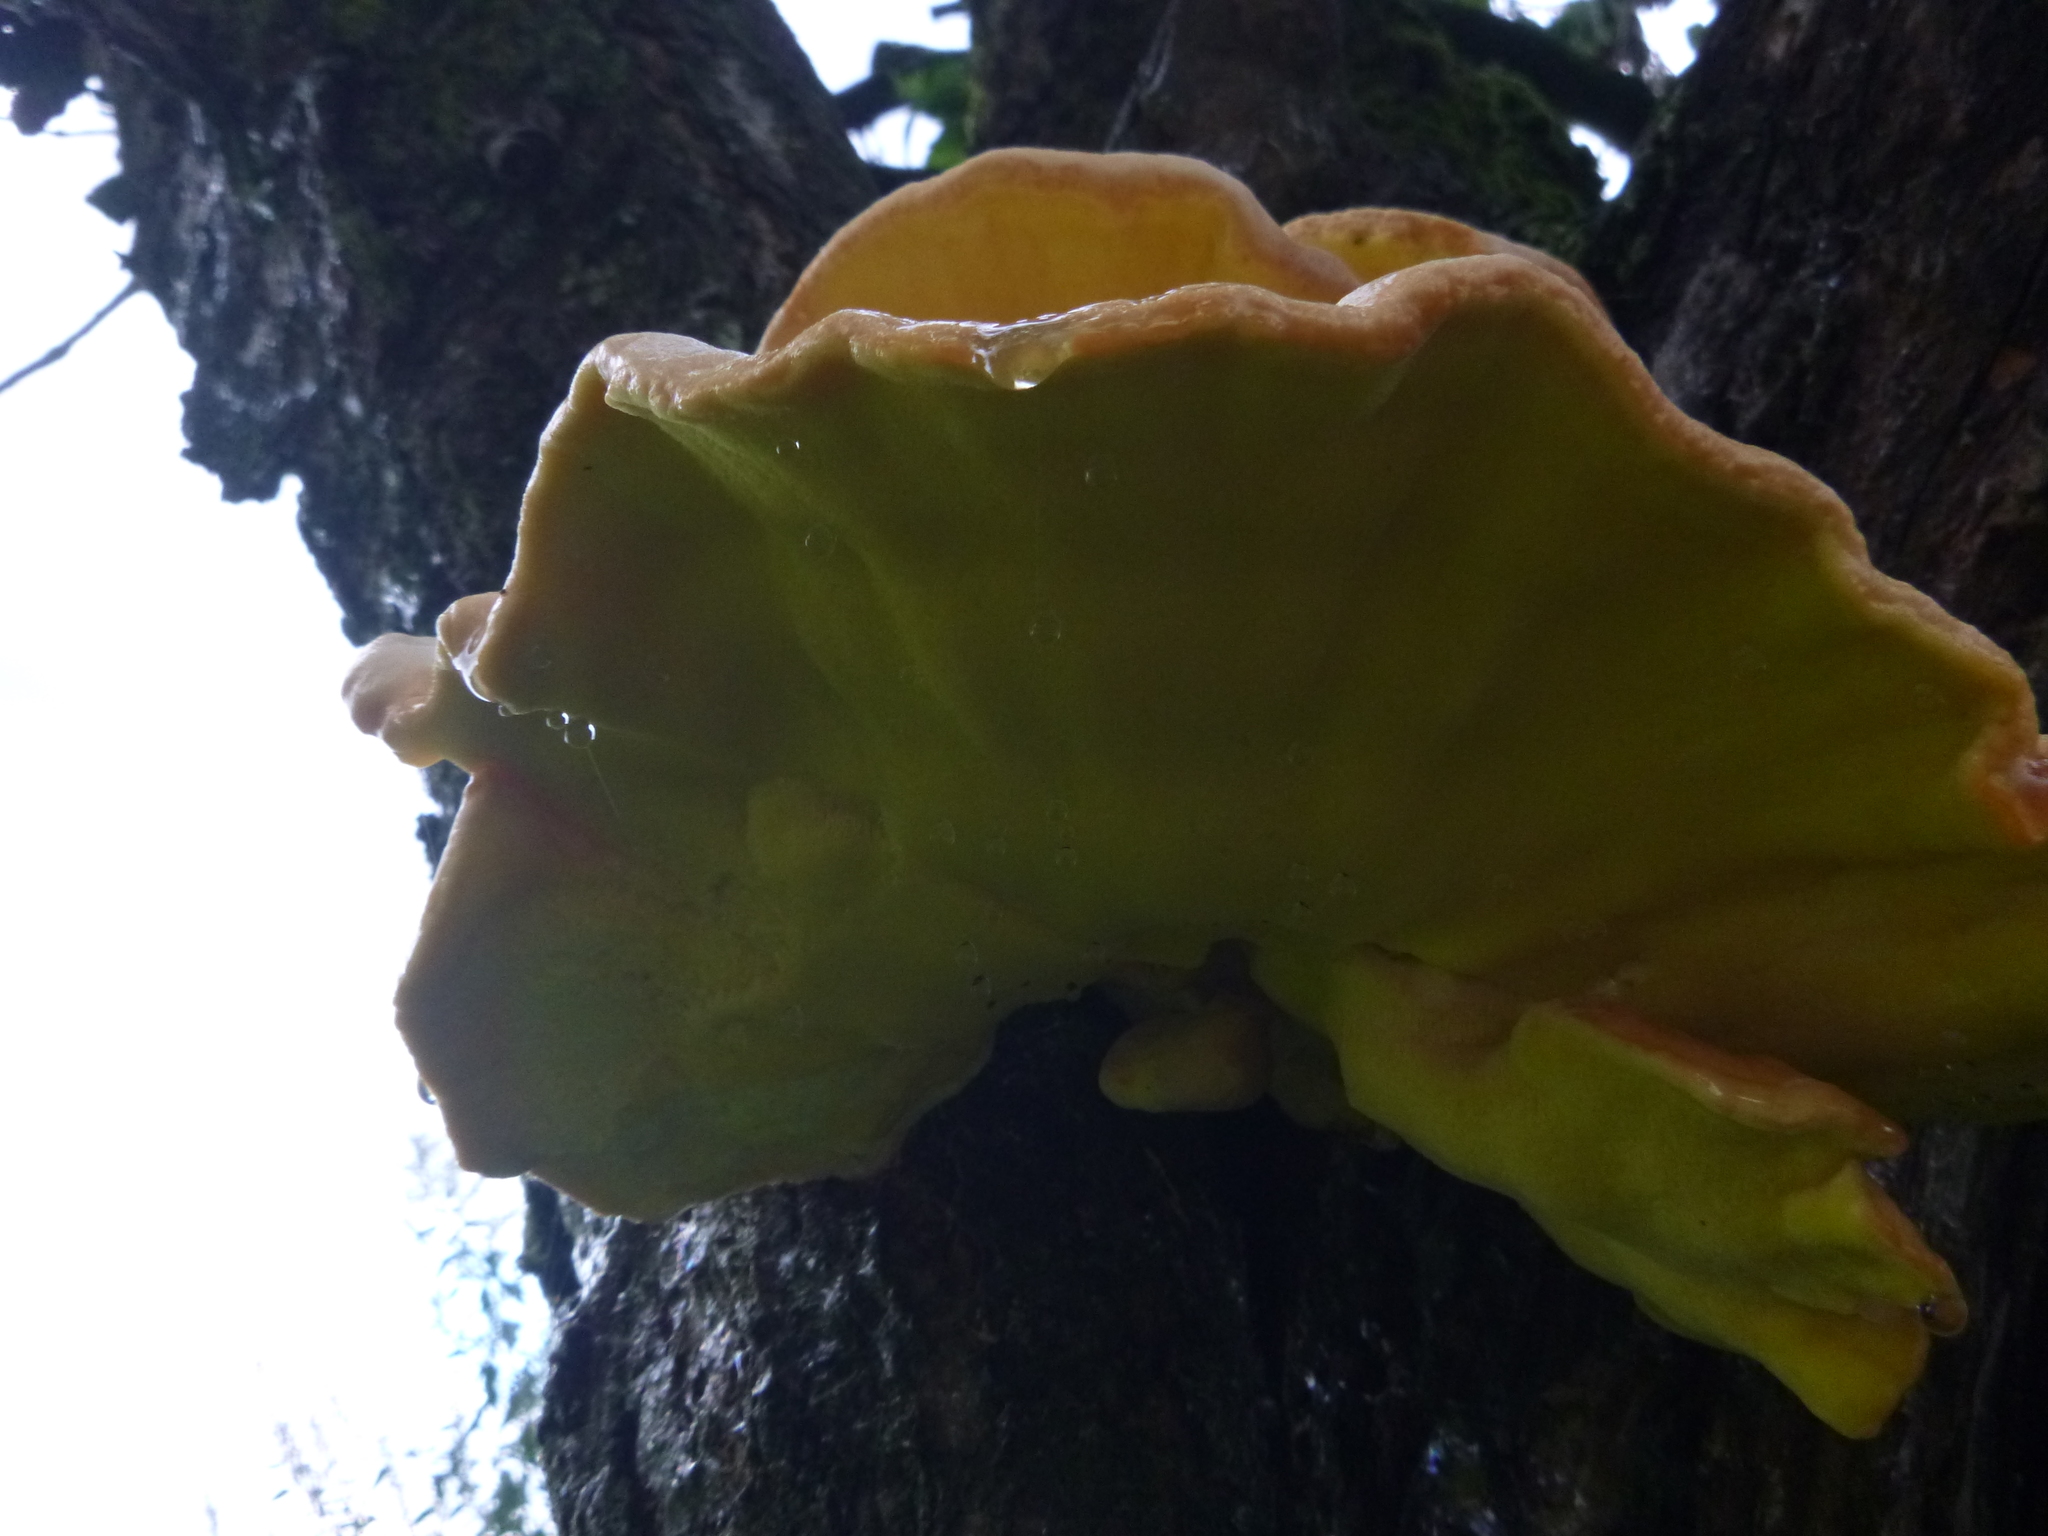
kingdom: Fungi
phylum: Basidiomycota
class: Agaricomycetes
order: Polyporales
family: Laetiporaceae
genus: Laetiporus
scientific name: Laetiporus sulphureus
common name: Chicken of the woods
